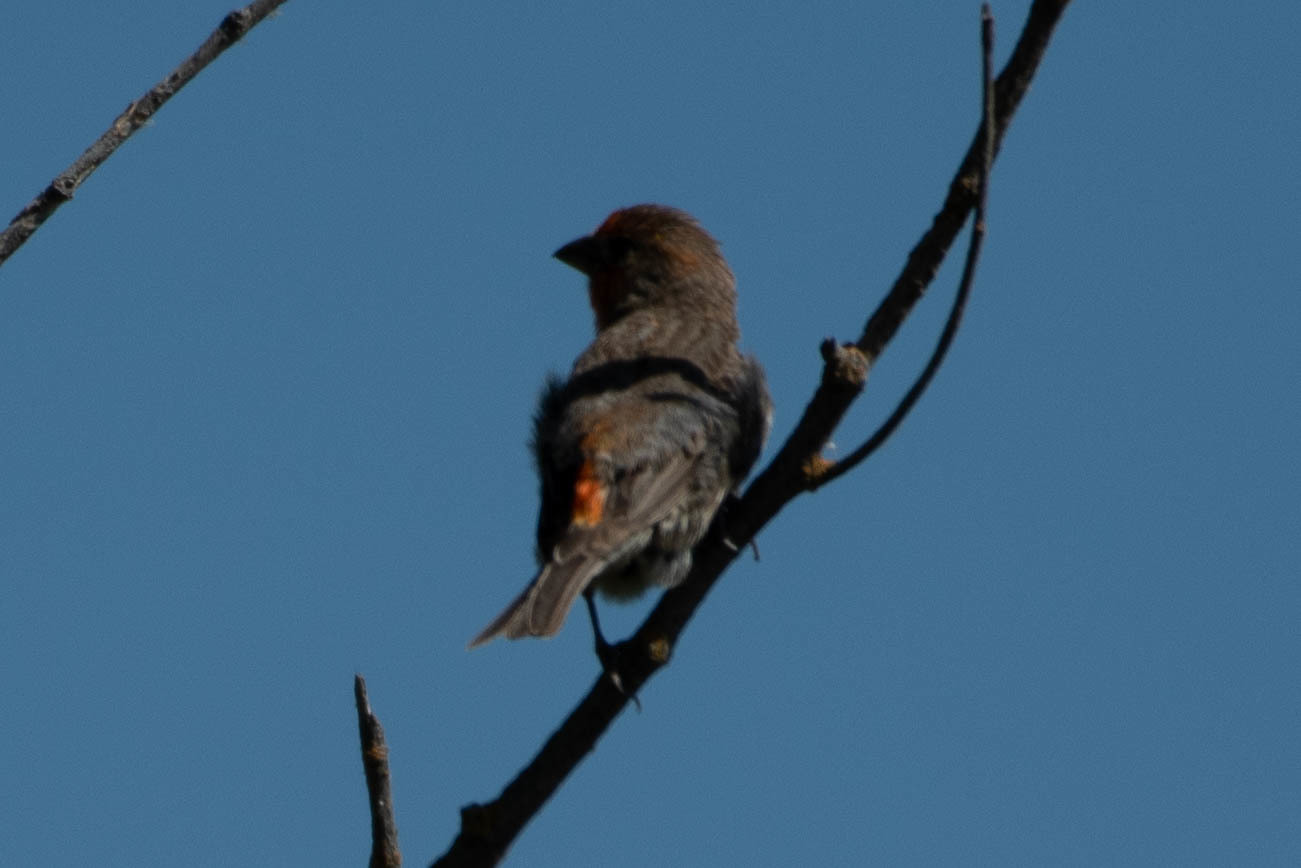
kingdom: Animalia
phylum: Chordata
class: Aves
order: Passeriformes
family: Fringillidae
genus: Haemorhous
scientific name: Haemorhous mexicanus
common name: House finch
